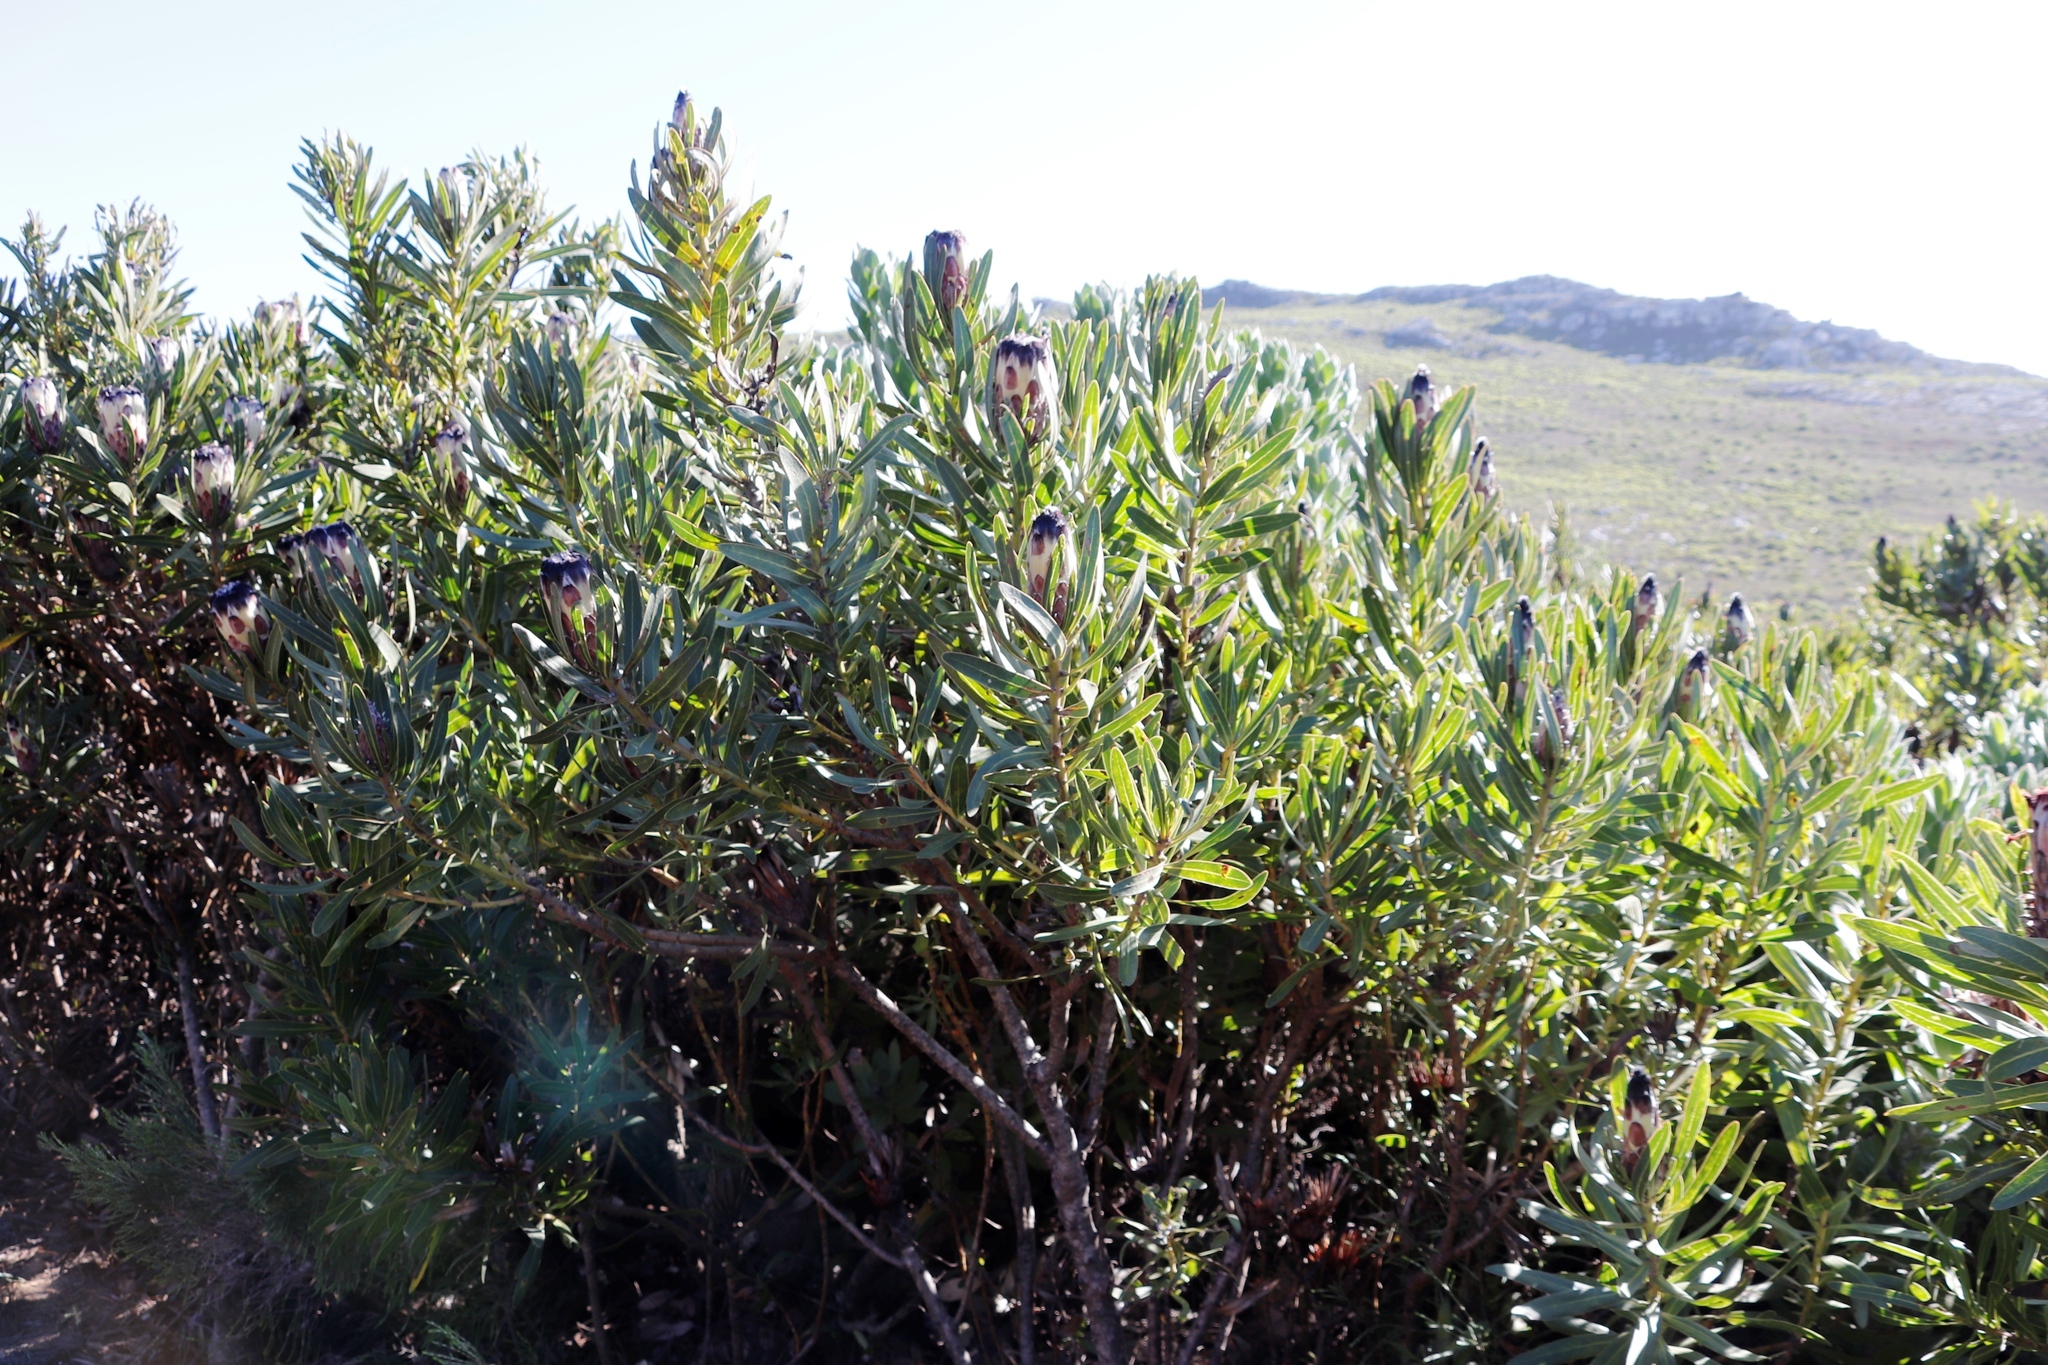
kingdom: Plantae
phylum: Tracheophyta
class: Magnoliopsida
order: Proteales
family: Proteaceae
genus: Protea
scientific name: Protea lepidocarpodendron
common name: Black-bearded protea
